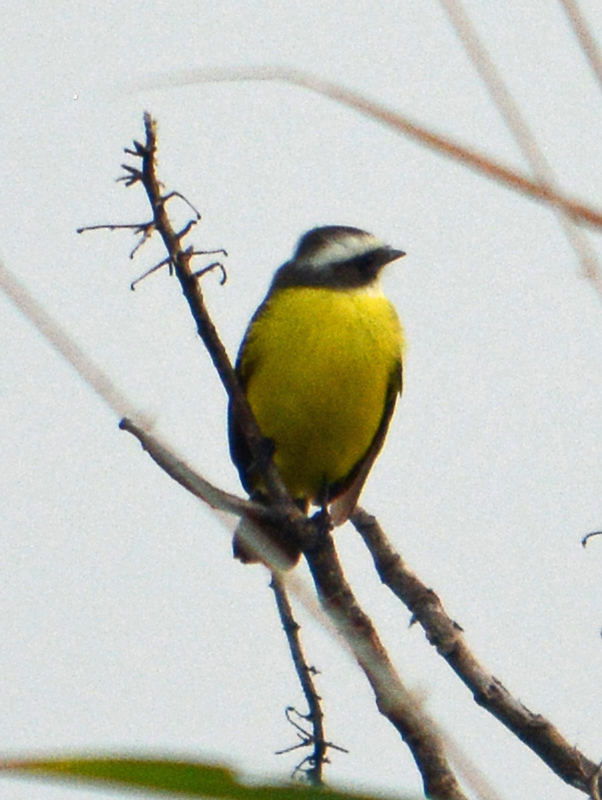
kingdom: Animalia
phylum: Chordata
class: Aves
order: Passeriformes
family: Tyrannidae
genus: Myiozetetes
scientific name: Myiozetetes similis
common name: Social flycatcher
